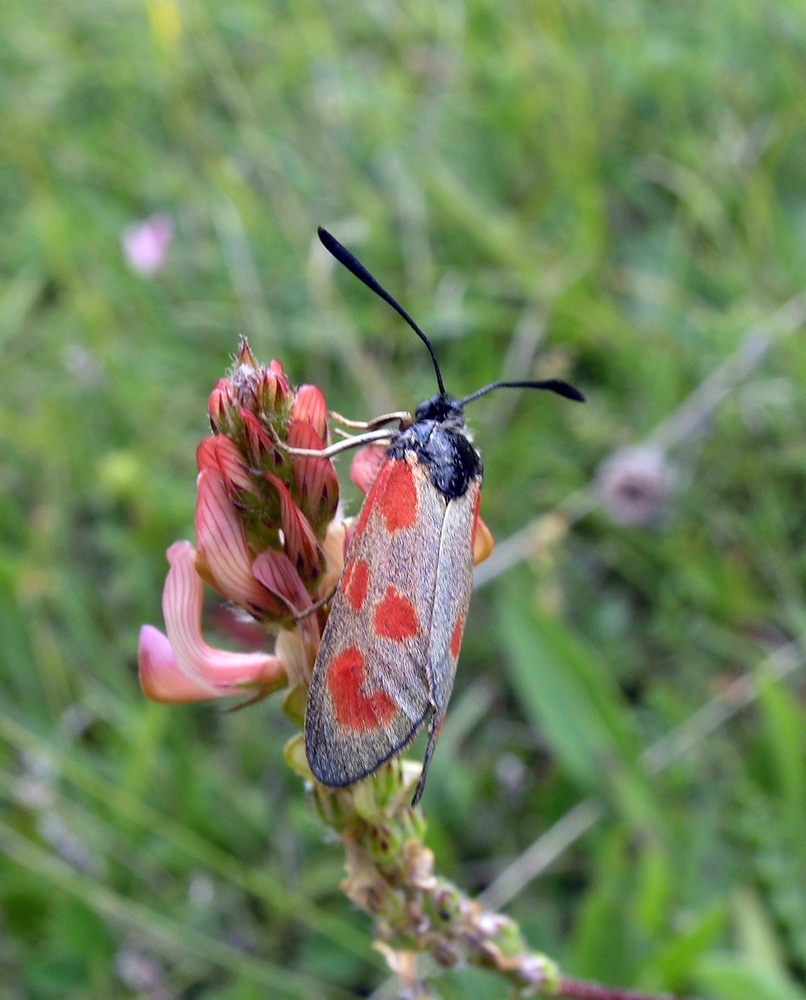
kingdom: Animalia
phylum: Arthropoda
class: Insecta
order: Lepidoptera
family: Zygaenidae
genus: Zygaena
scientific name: Zygaena loti
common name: Slender scotch burnet
